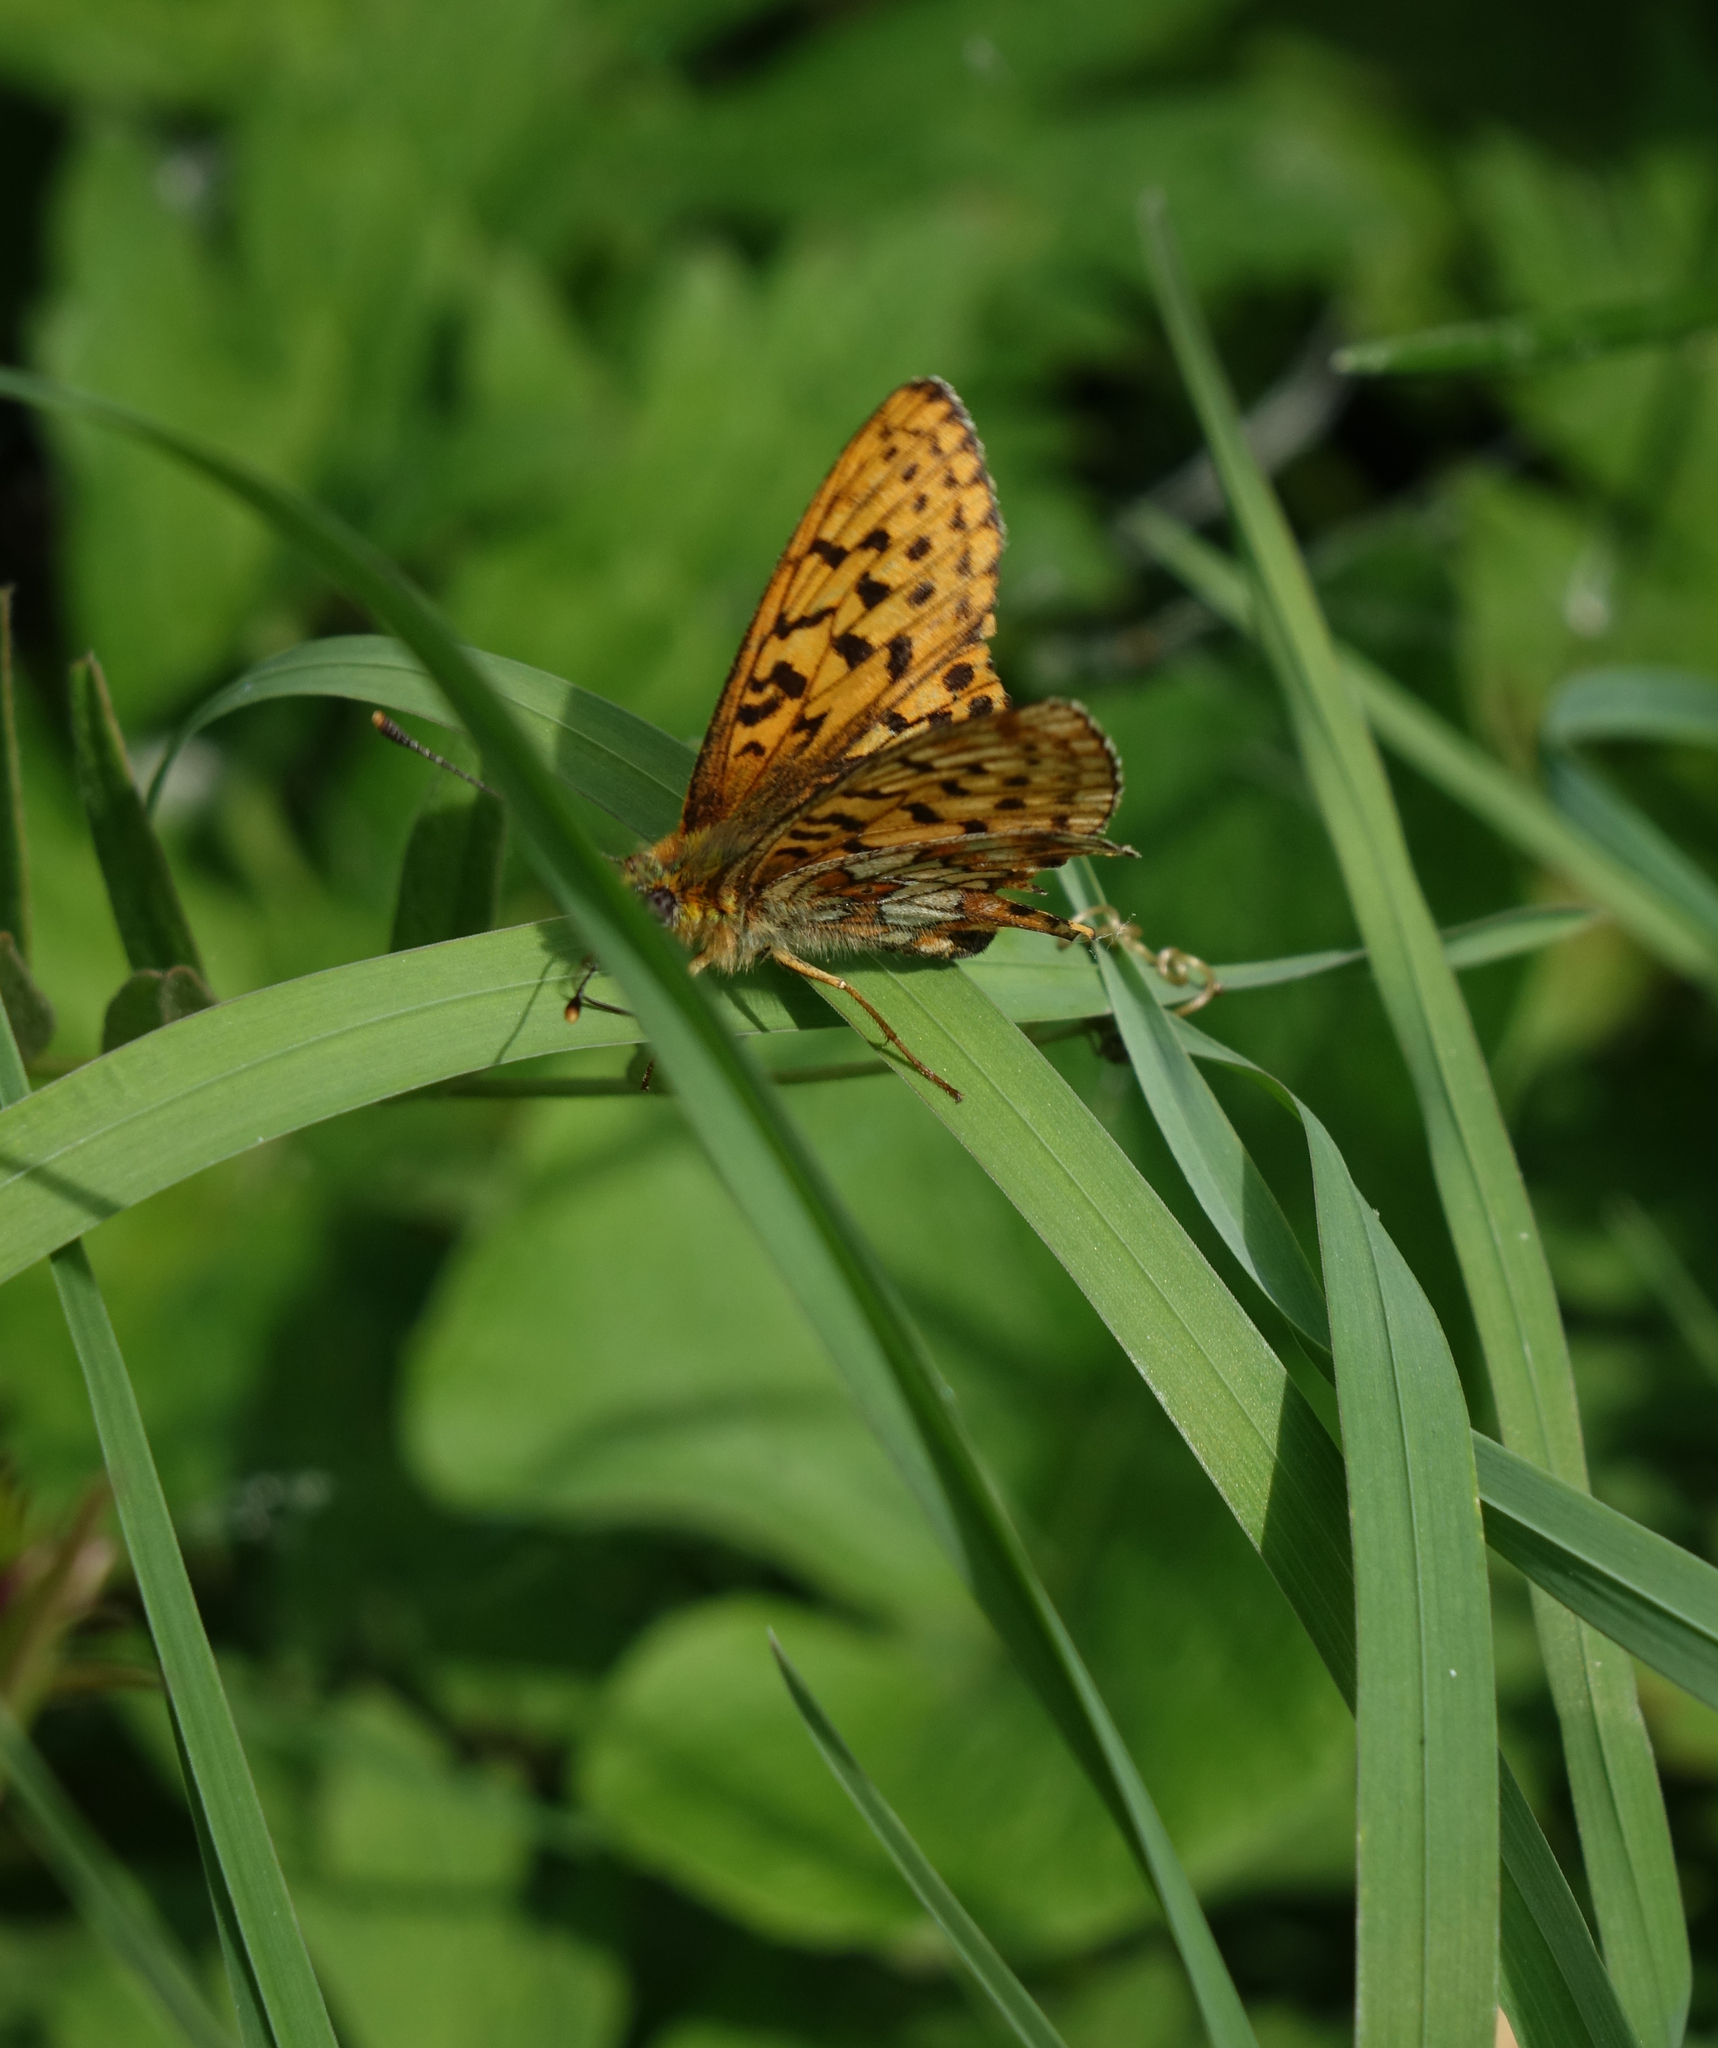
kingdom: Animalia
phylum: Arthropoda
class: Insecta
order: Lepidoptera
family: Nymphalidae
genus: Clossiana
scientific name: Clossiana oscarus
